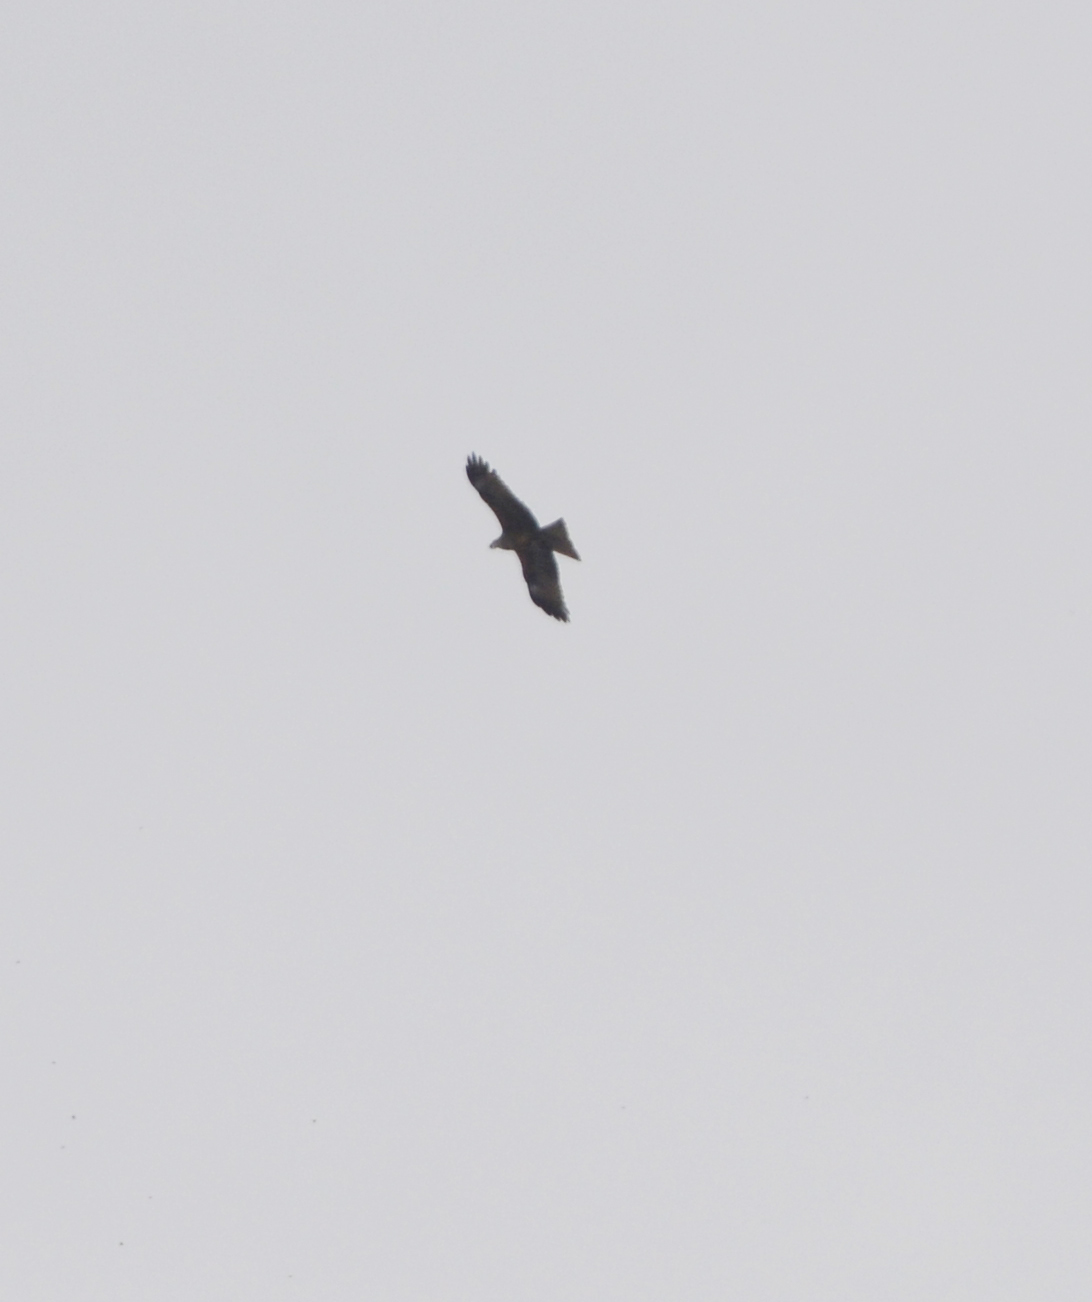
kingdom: Animalia
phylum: Chordata
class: Aves
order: Accipitriformes
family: Accipitridae
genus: Milvus
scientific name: Milvus migrans
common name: Black kite
